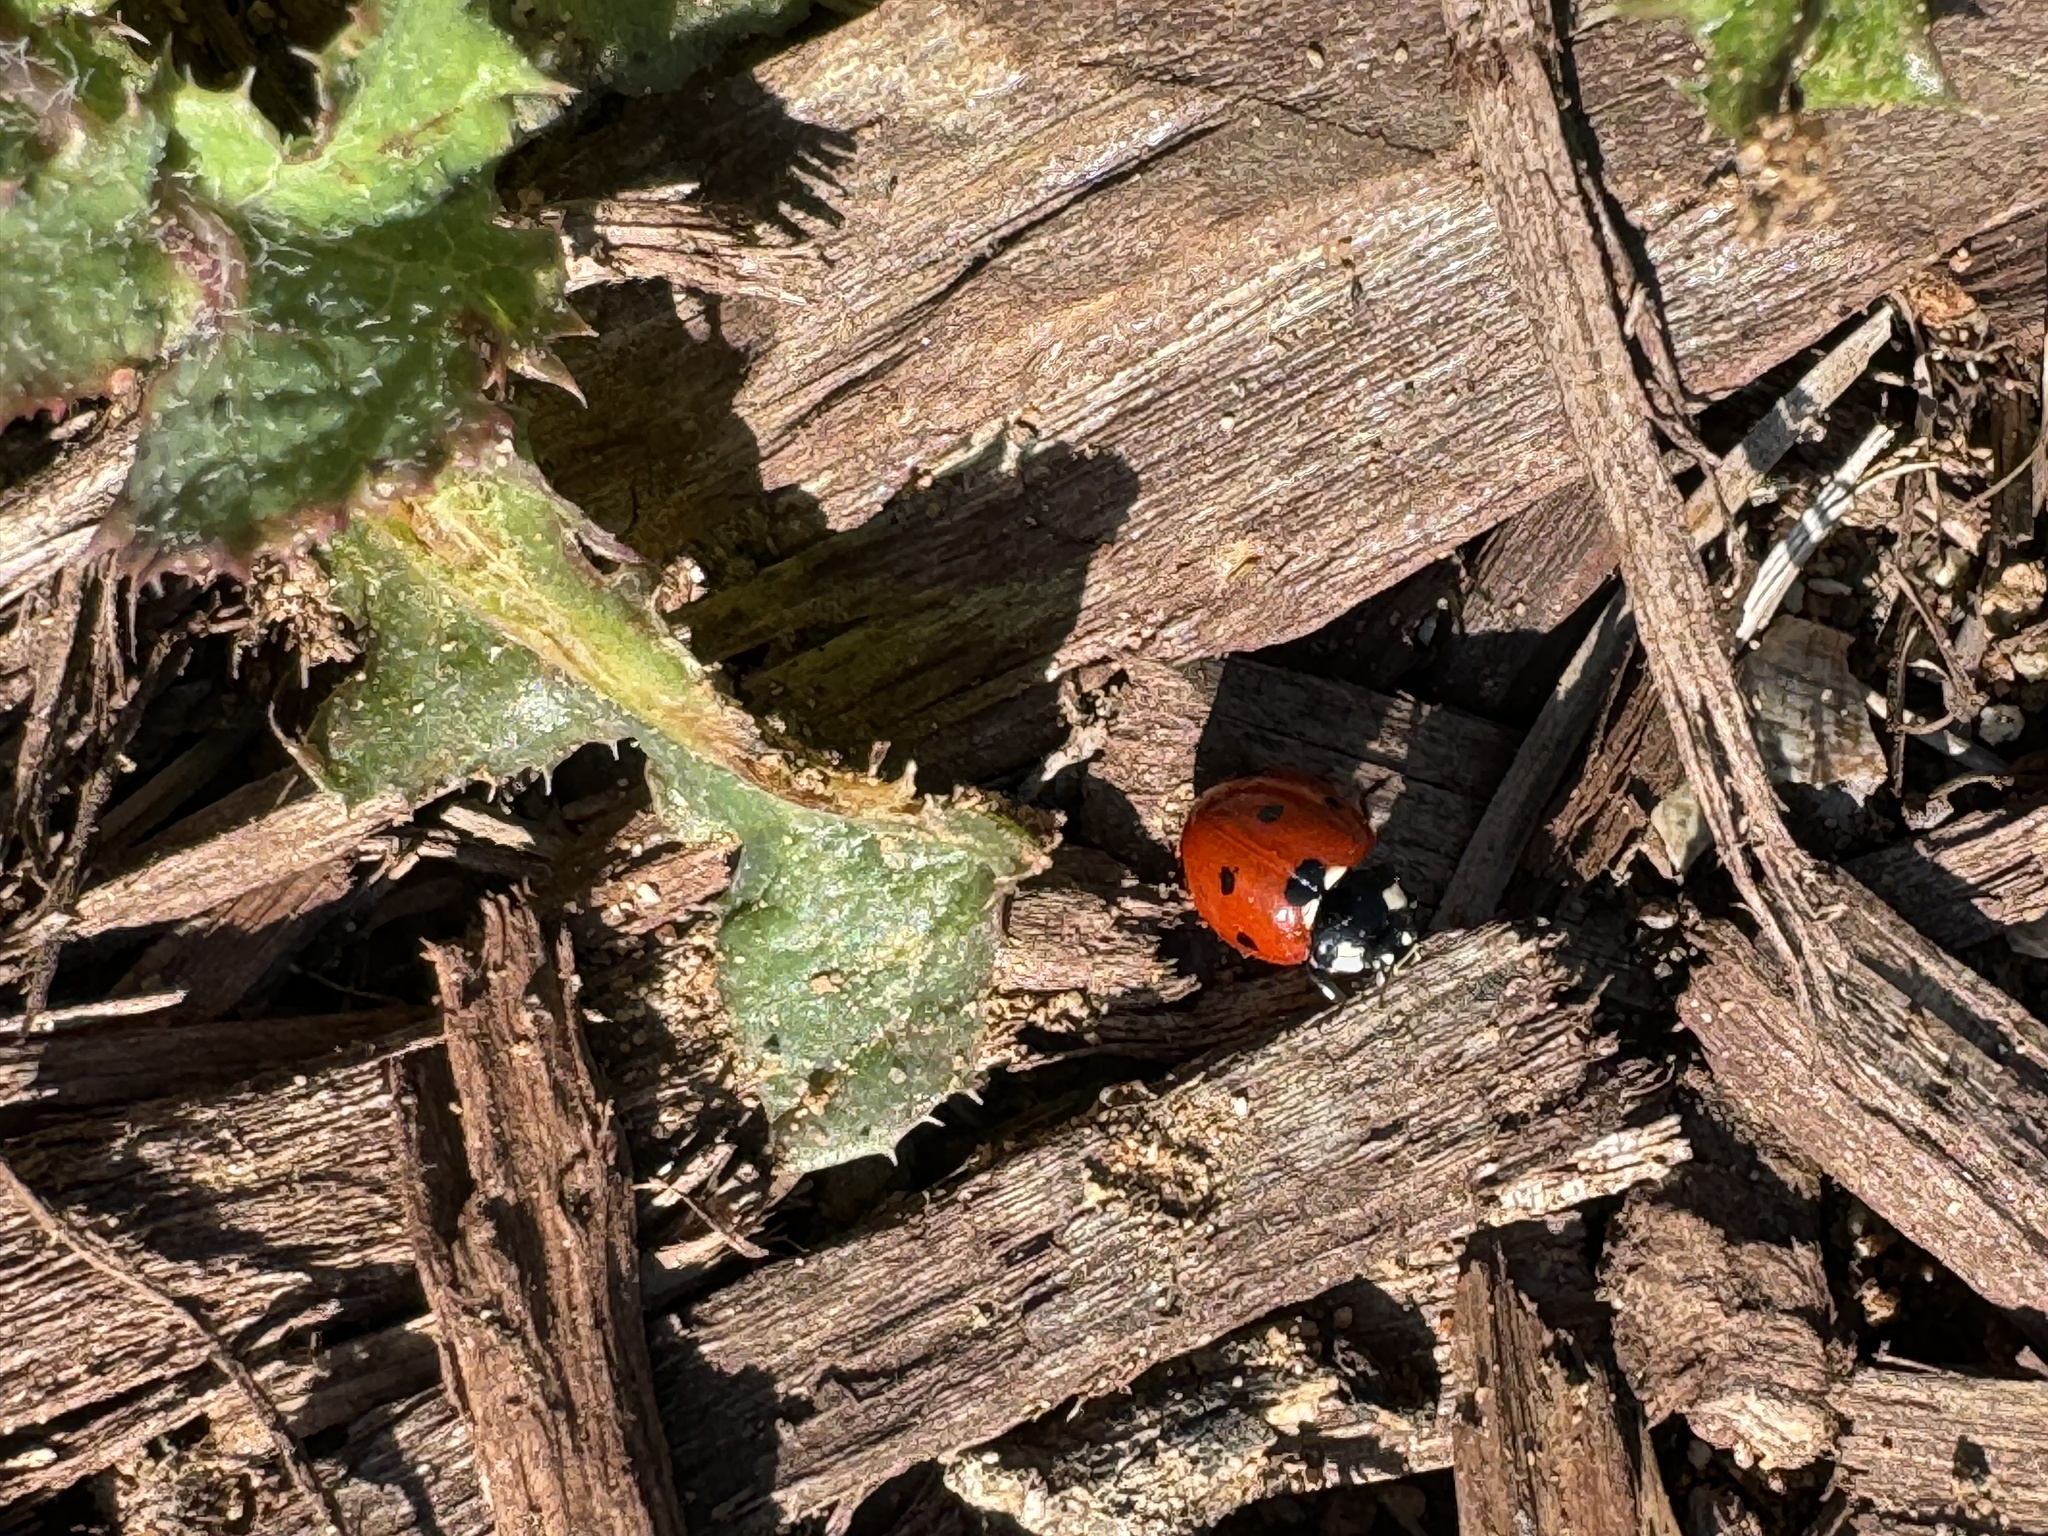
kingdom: Animalia
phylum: Arthropoda
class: Insecta
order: Coleoptera
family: Coccinellidae
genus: Coccinella
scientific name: Coccinella septempunctata
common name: Sevenspotted lady beetle
